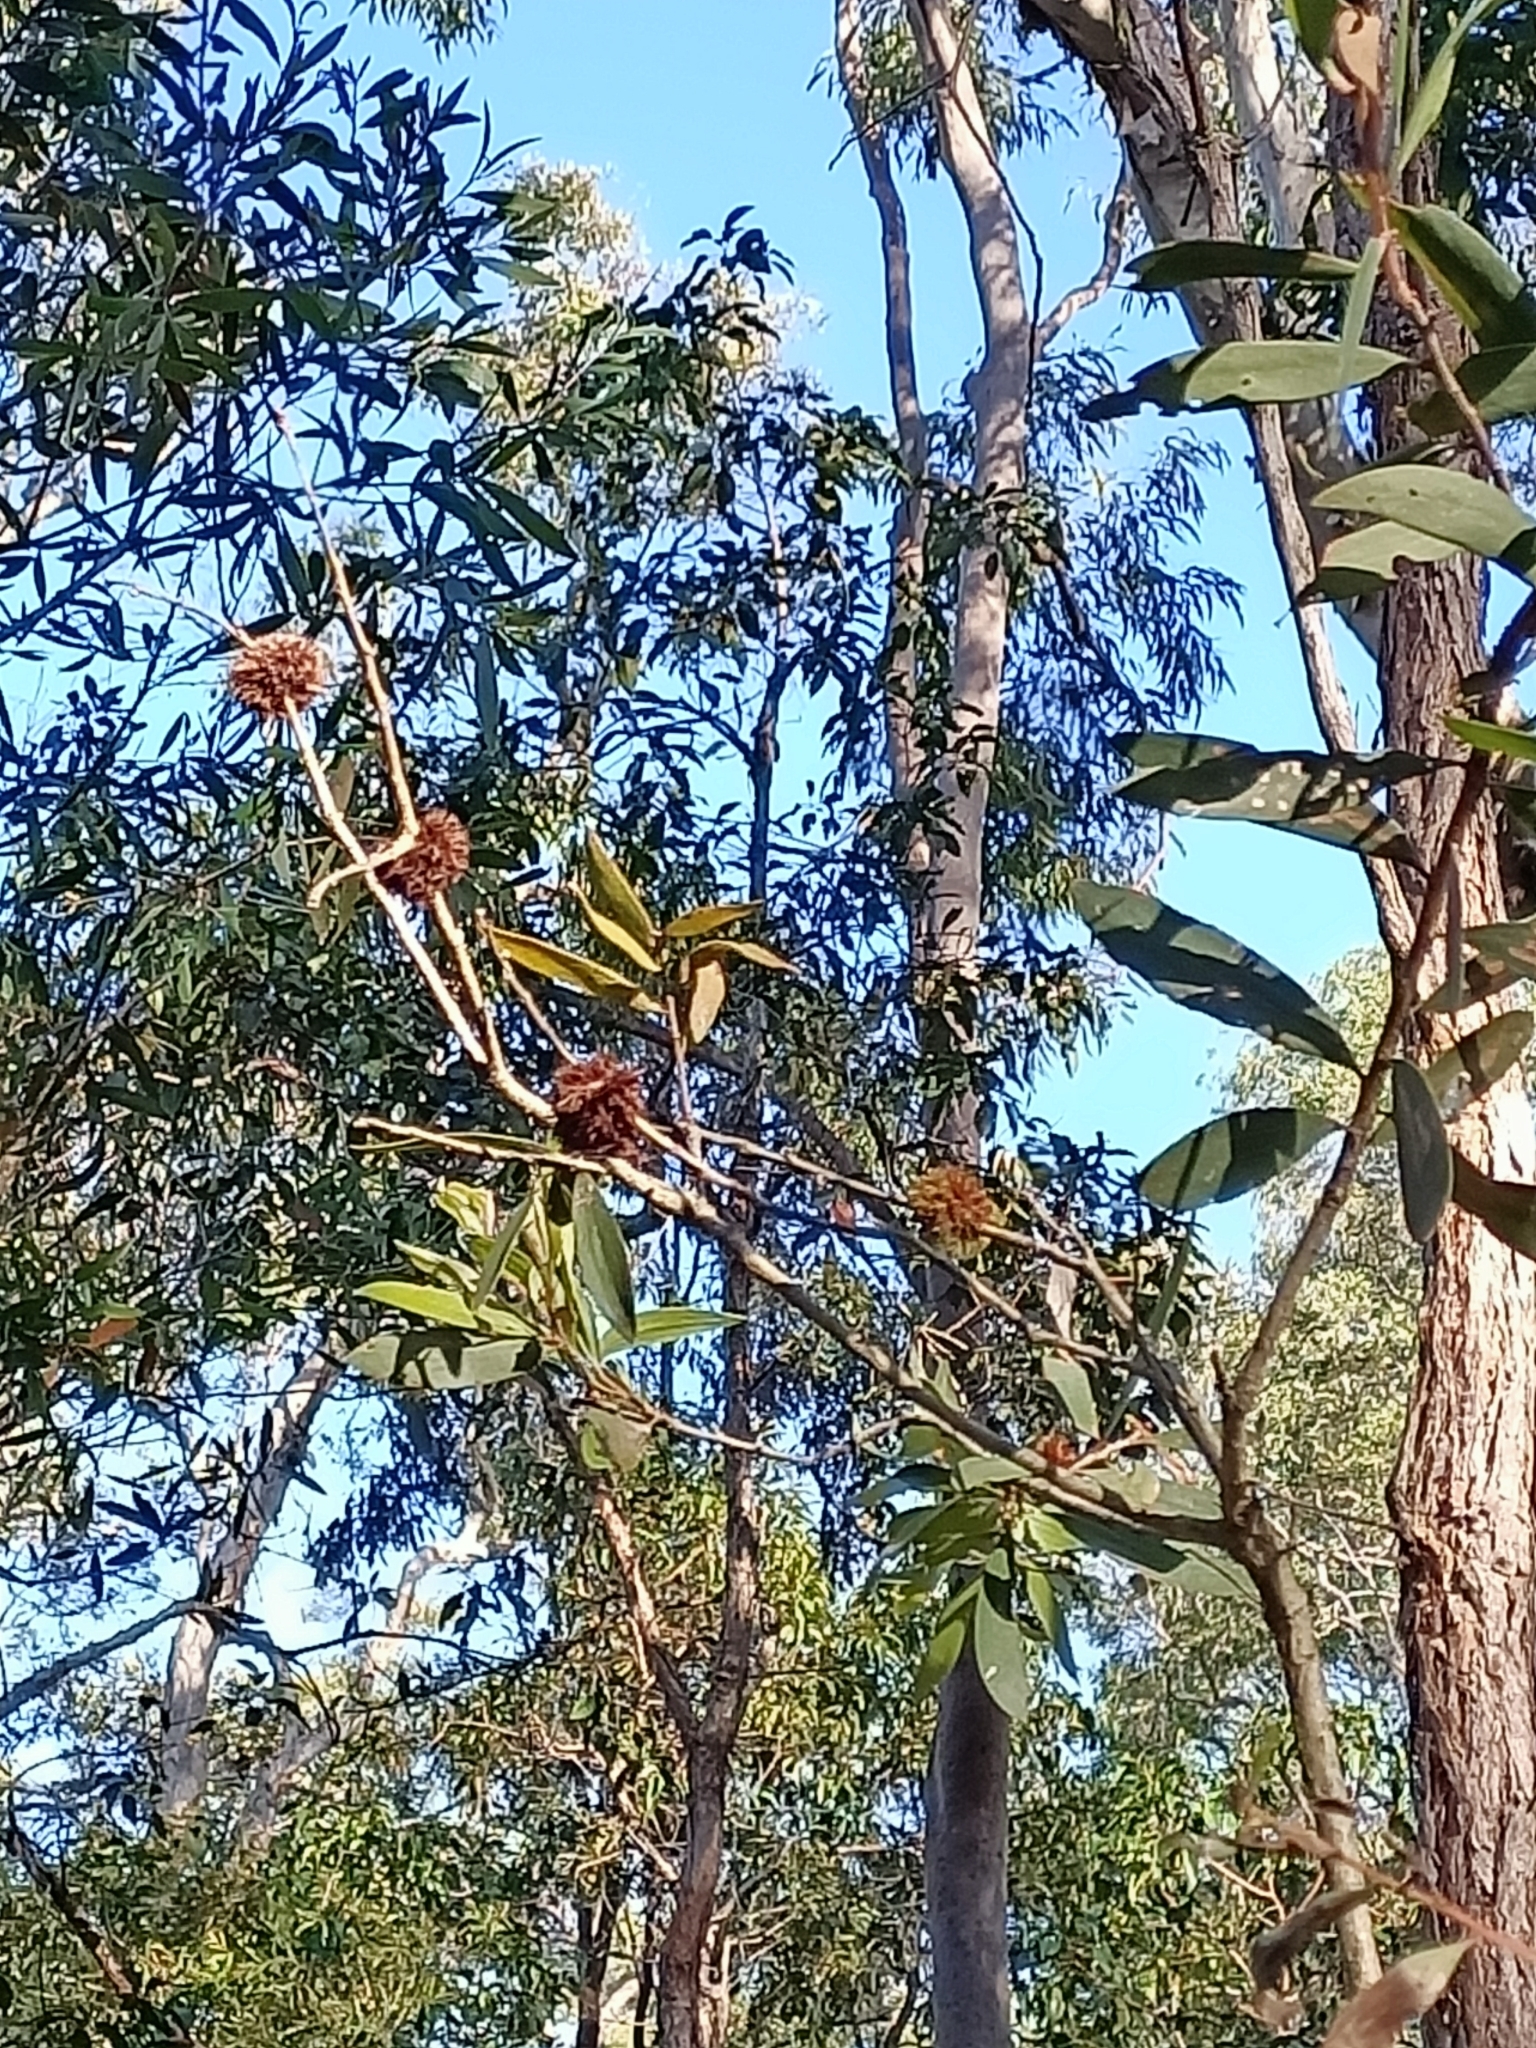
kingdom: Animalia
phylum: Arthropoda
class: Insecta
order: Hemiptera
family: Beesoniidae
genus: Beesonia
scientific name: Beesonia ferrugineus
